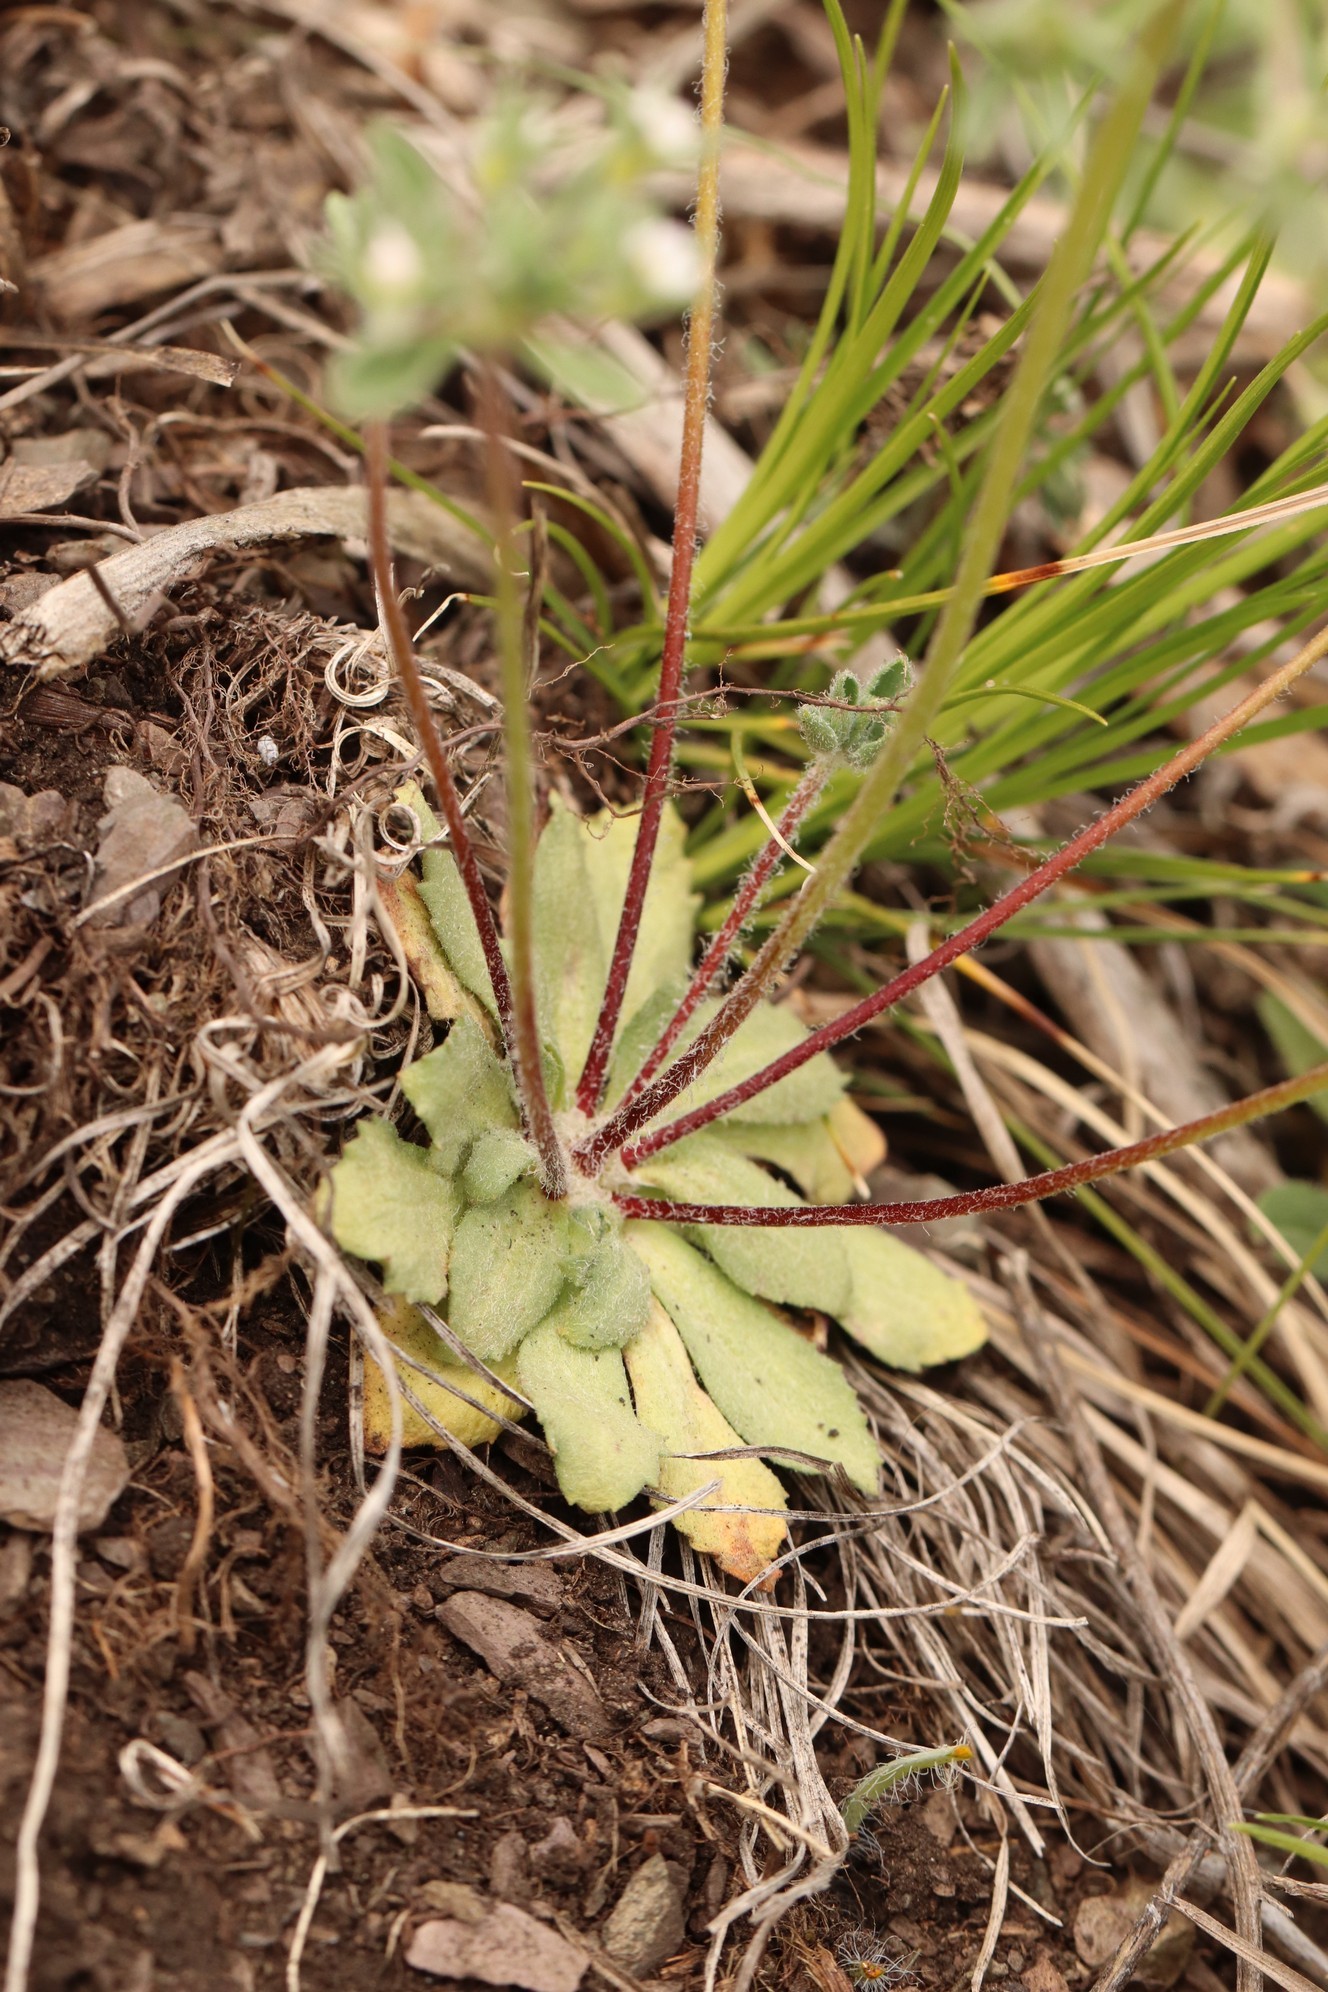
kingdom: Plantae
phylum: Tracheophyta
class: Magnoliopsida
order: Ericales
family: Primulaceae
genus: Androsace
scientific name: Androsace maxima
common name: Annual androsace
